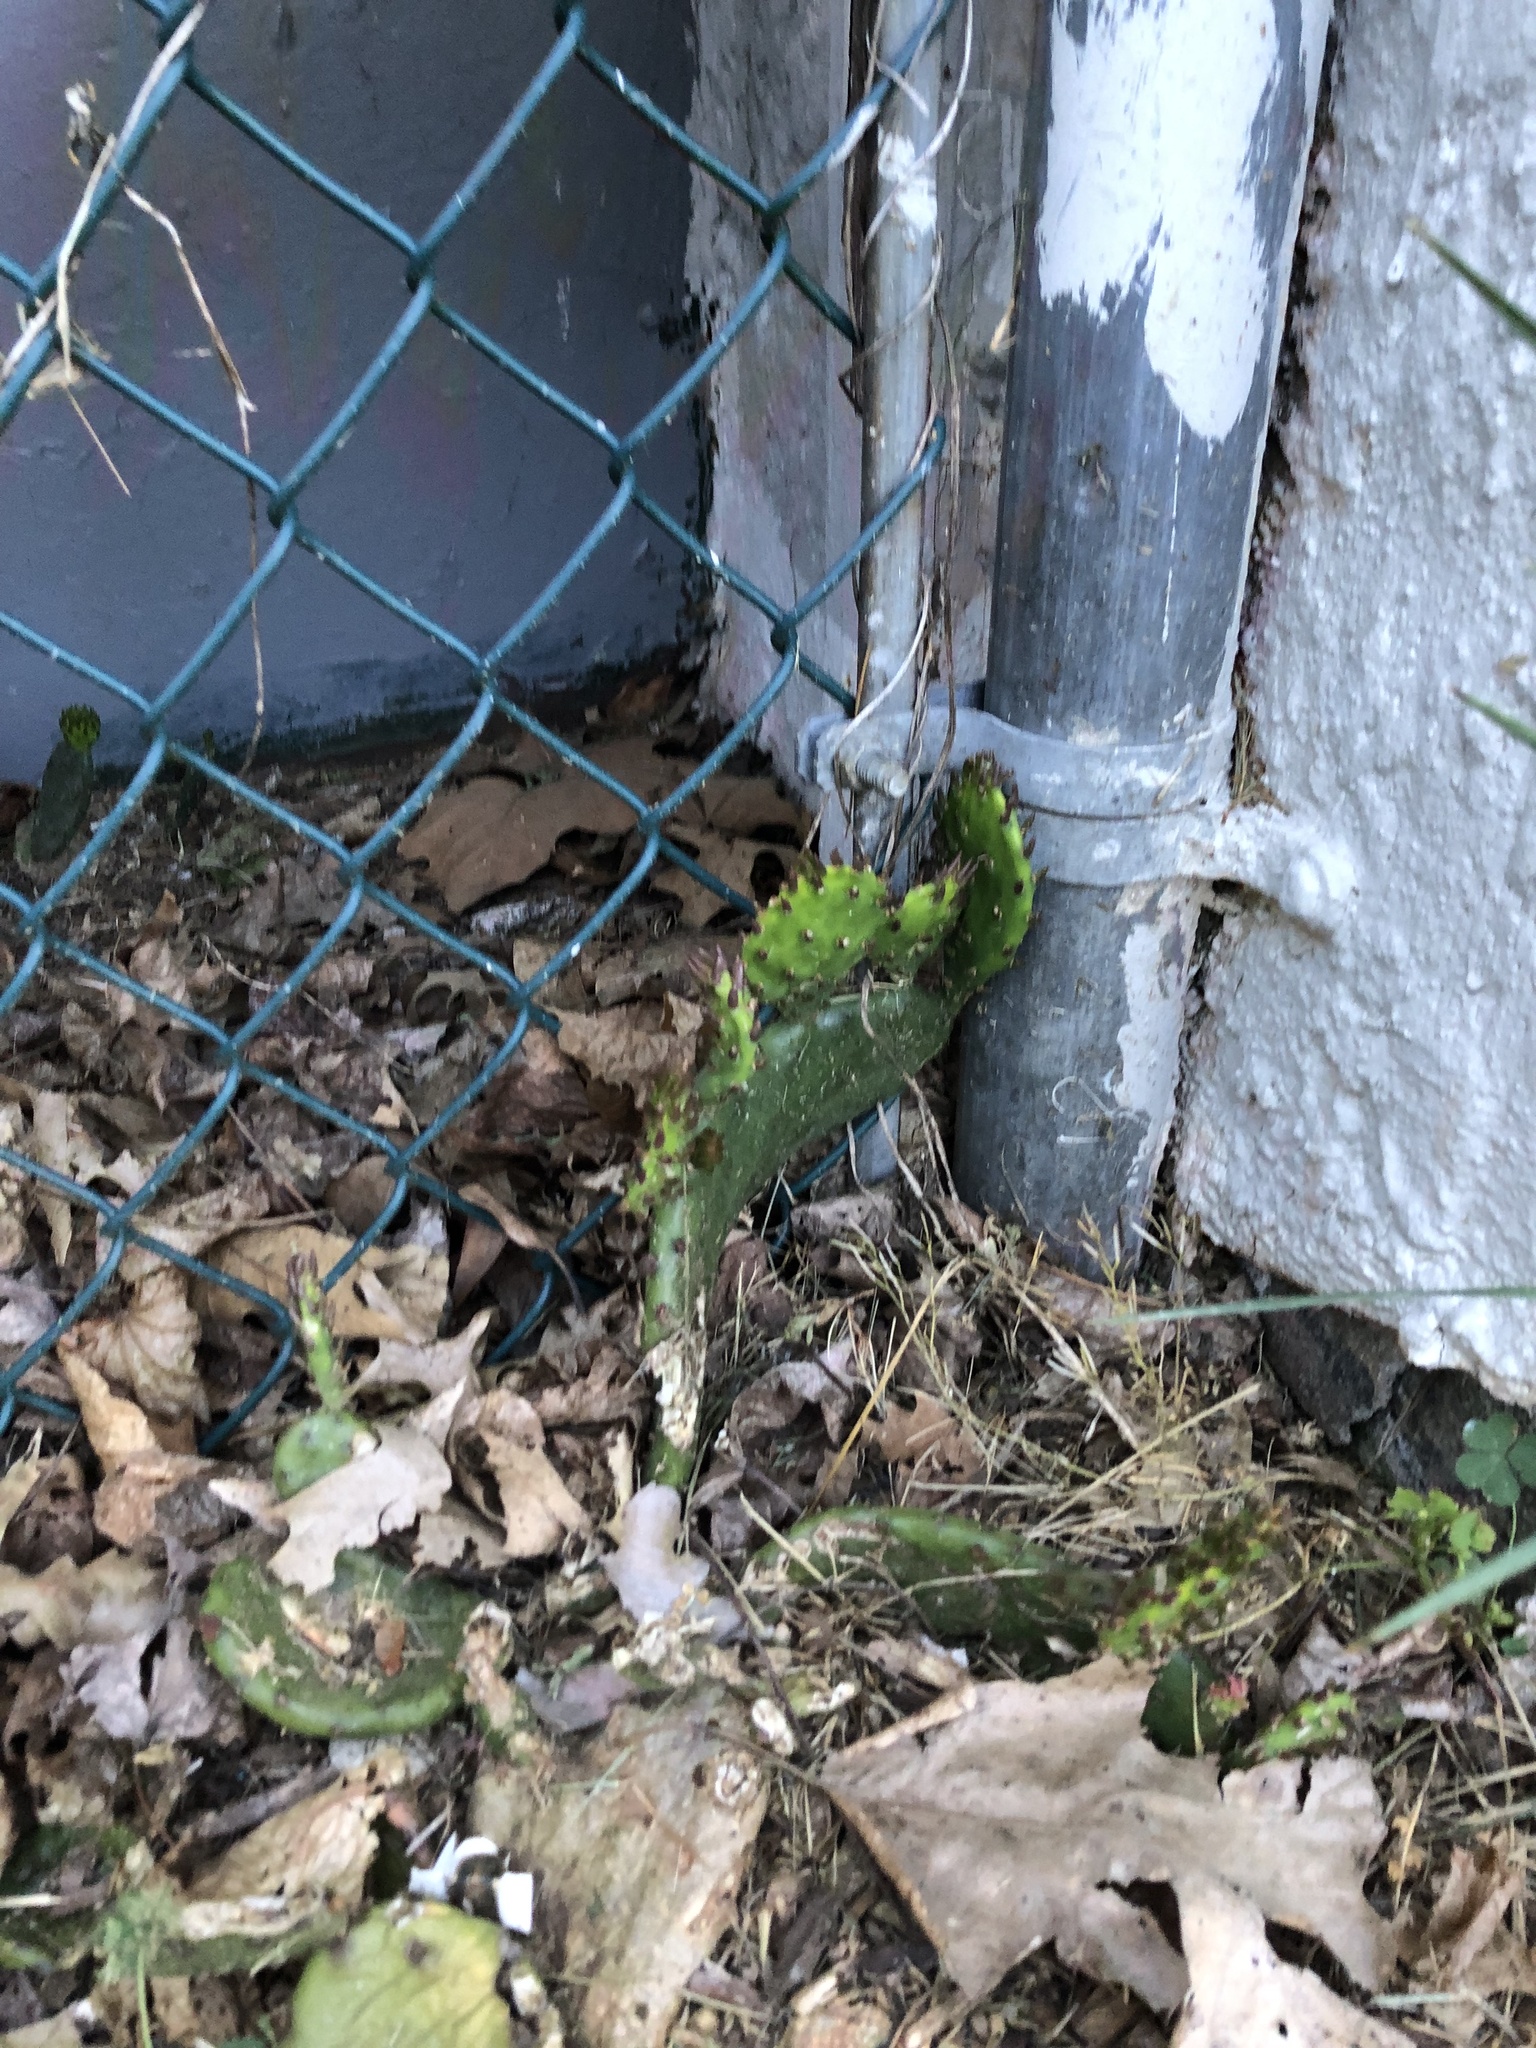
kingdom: Plantae
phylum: Tracheophyta
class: Magnoliopsida
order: Caryophyllales
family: Cactaceae
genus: Opuntia
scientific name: Opuntia humifusa
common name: Eastern prickly-pear
